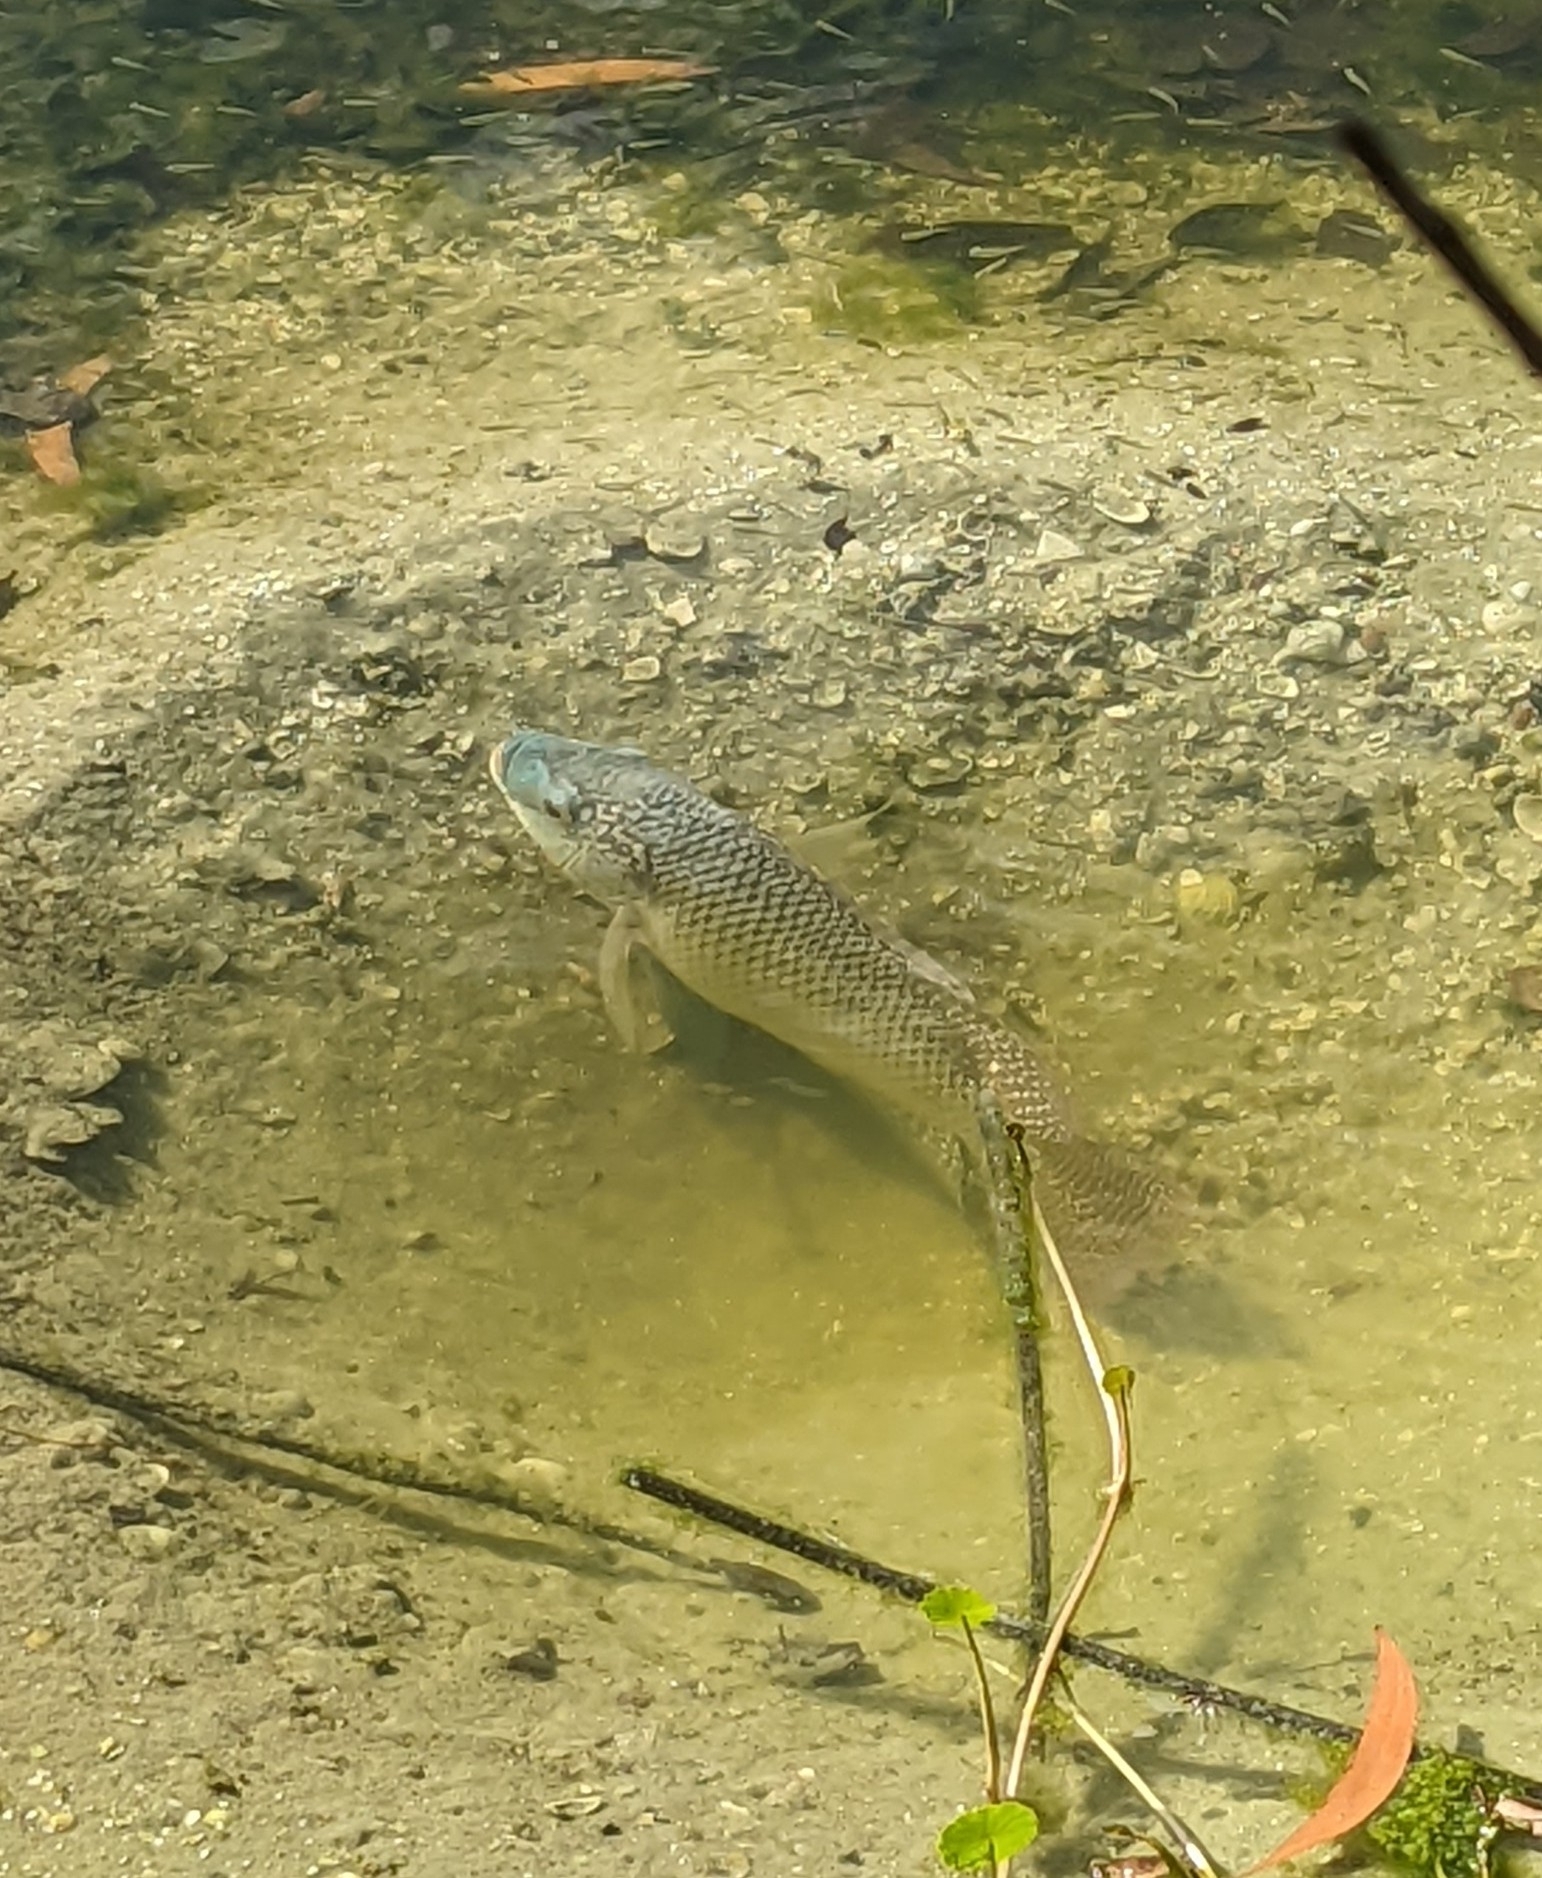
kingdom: Animalia
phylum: Chordata
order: Perciformes
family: Cichlidae
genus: Oreochromis
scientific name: Oreochromis aureus
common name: Blue tilapia
